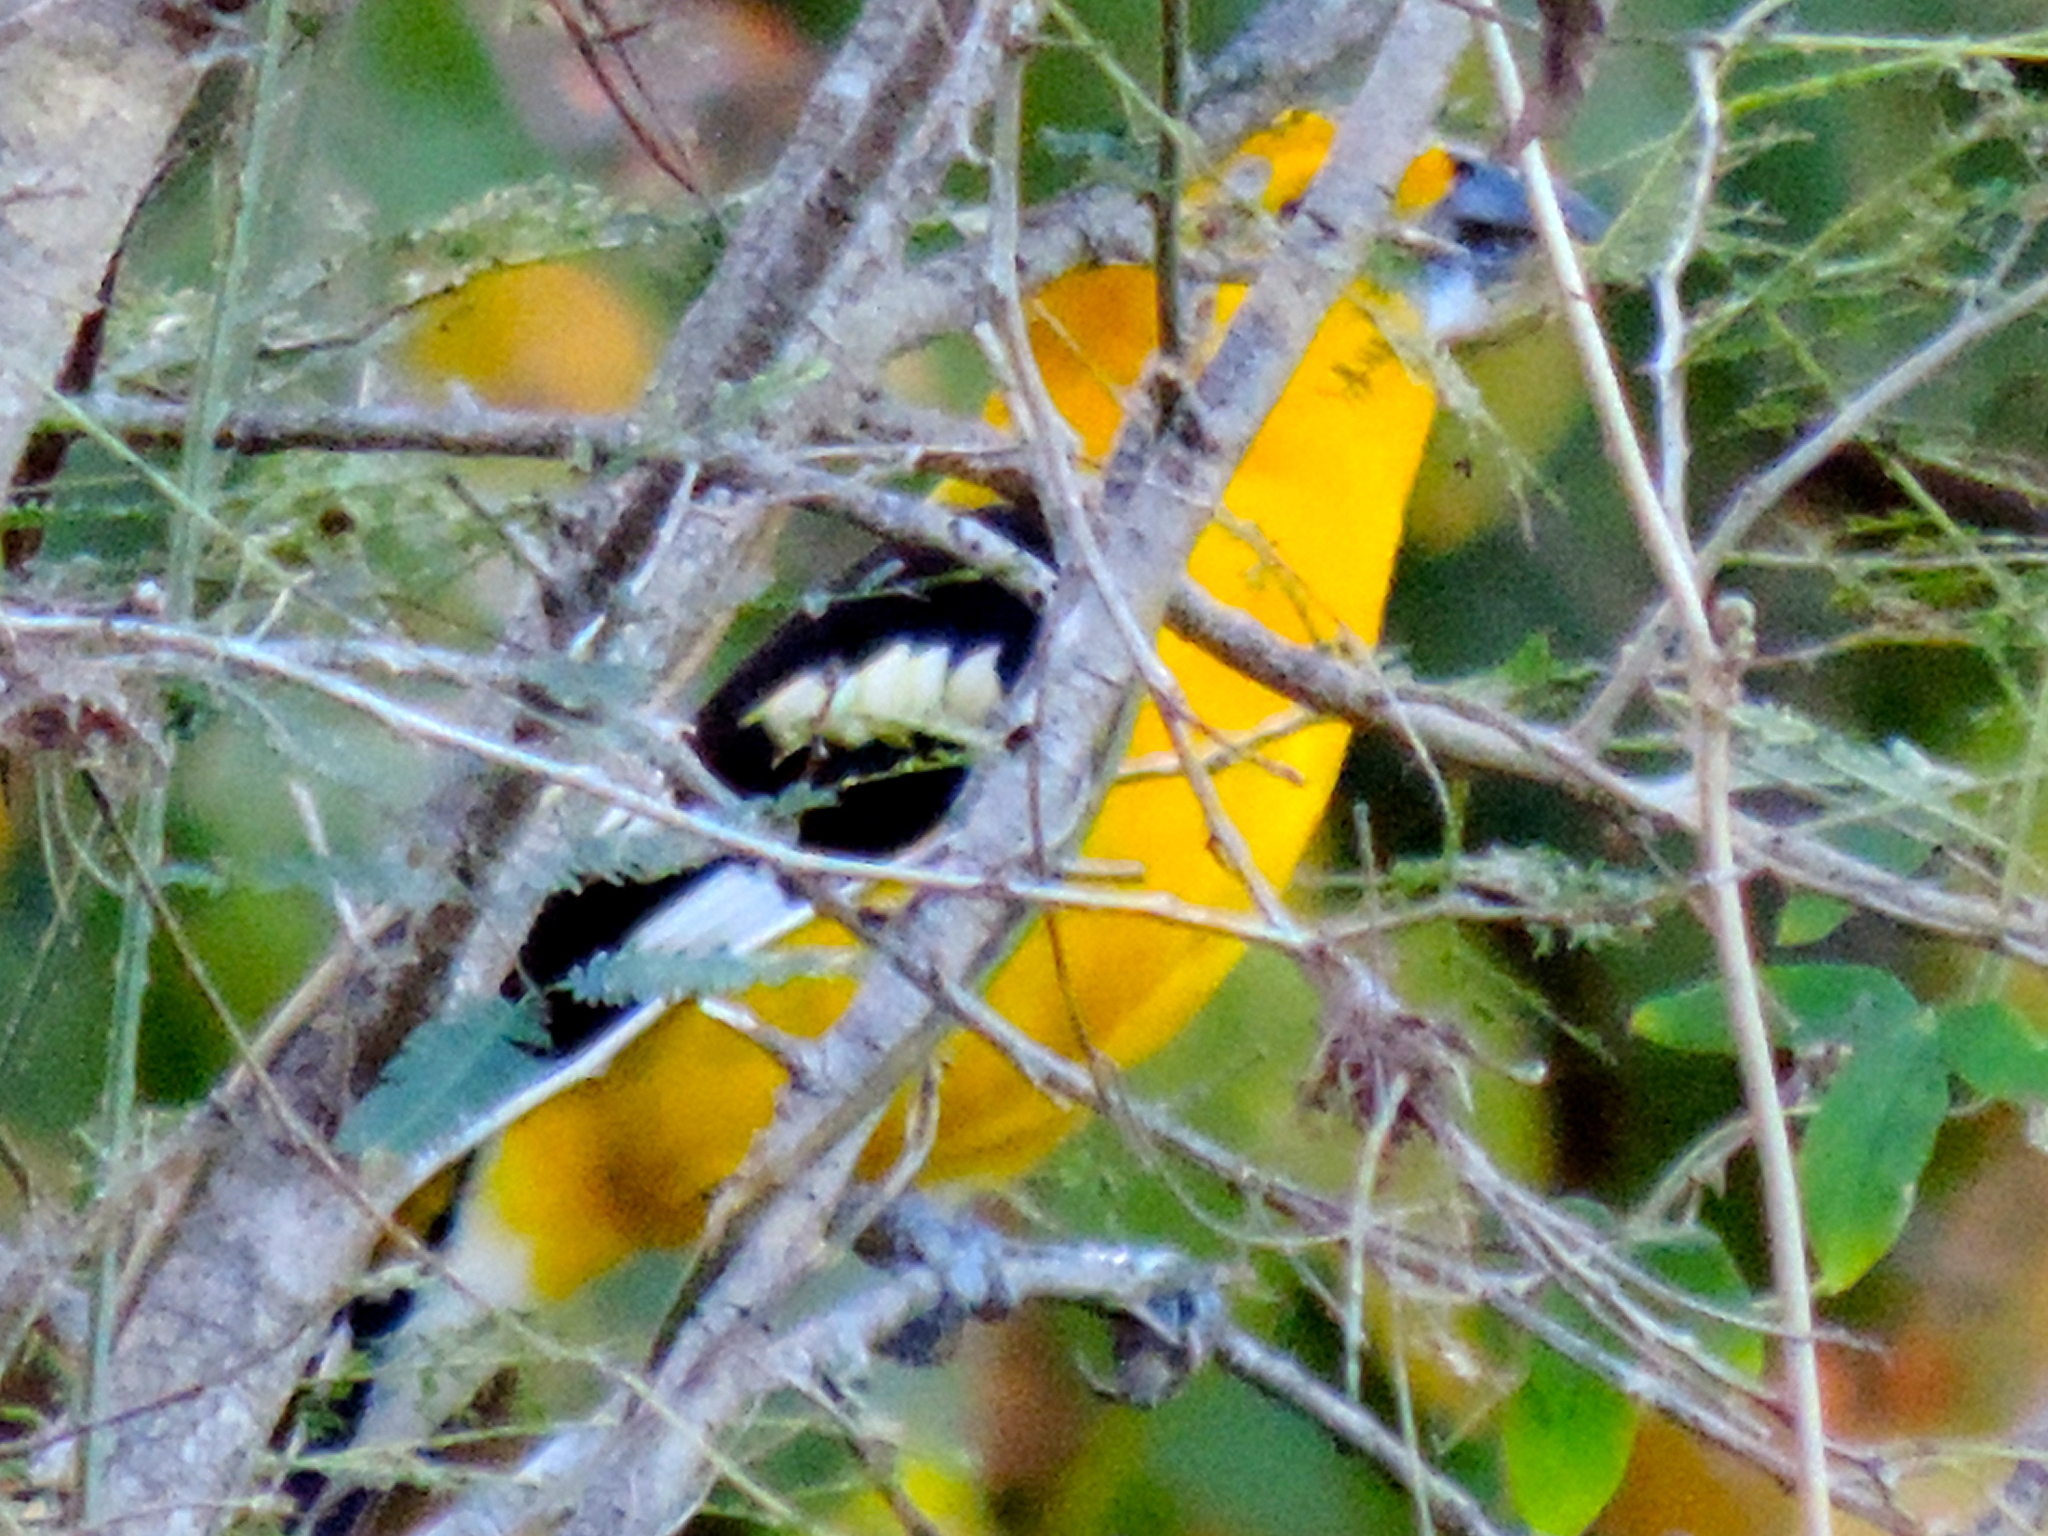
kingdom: Animalia
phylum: Chordata
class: Aves
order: Passeriformes
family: Cardinalidae
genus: Pheucticus
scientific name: Pheucticus chrysopeplus
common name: Yellow grosbeak
